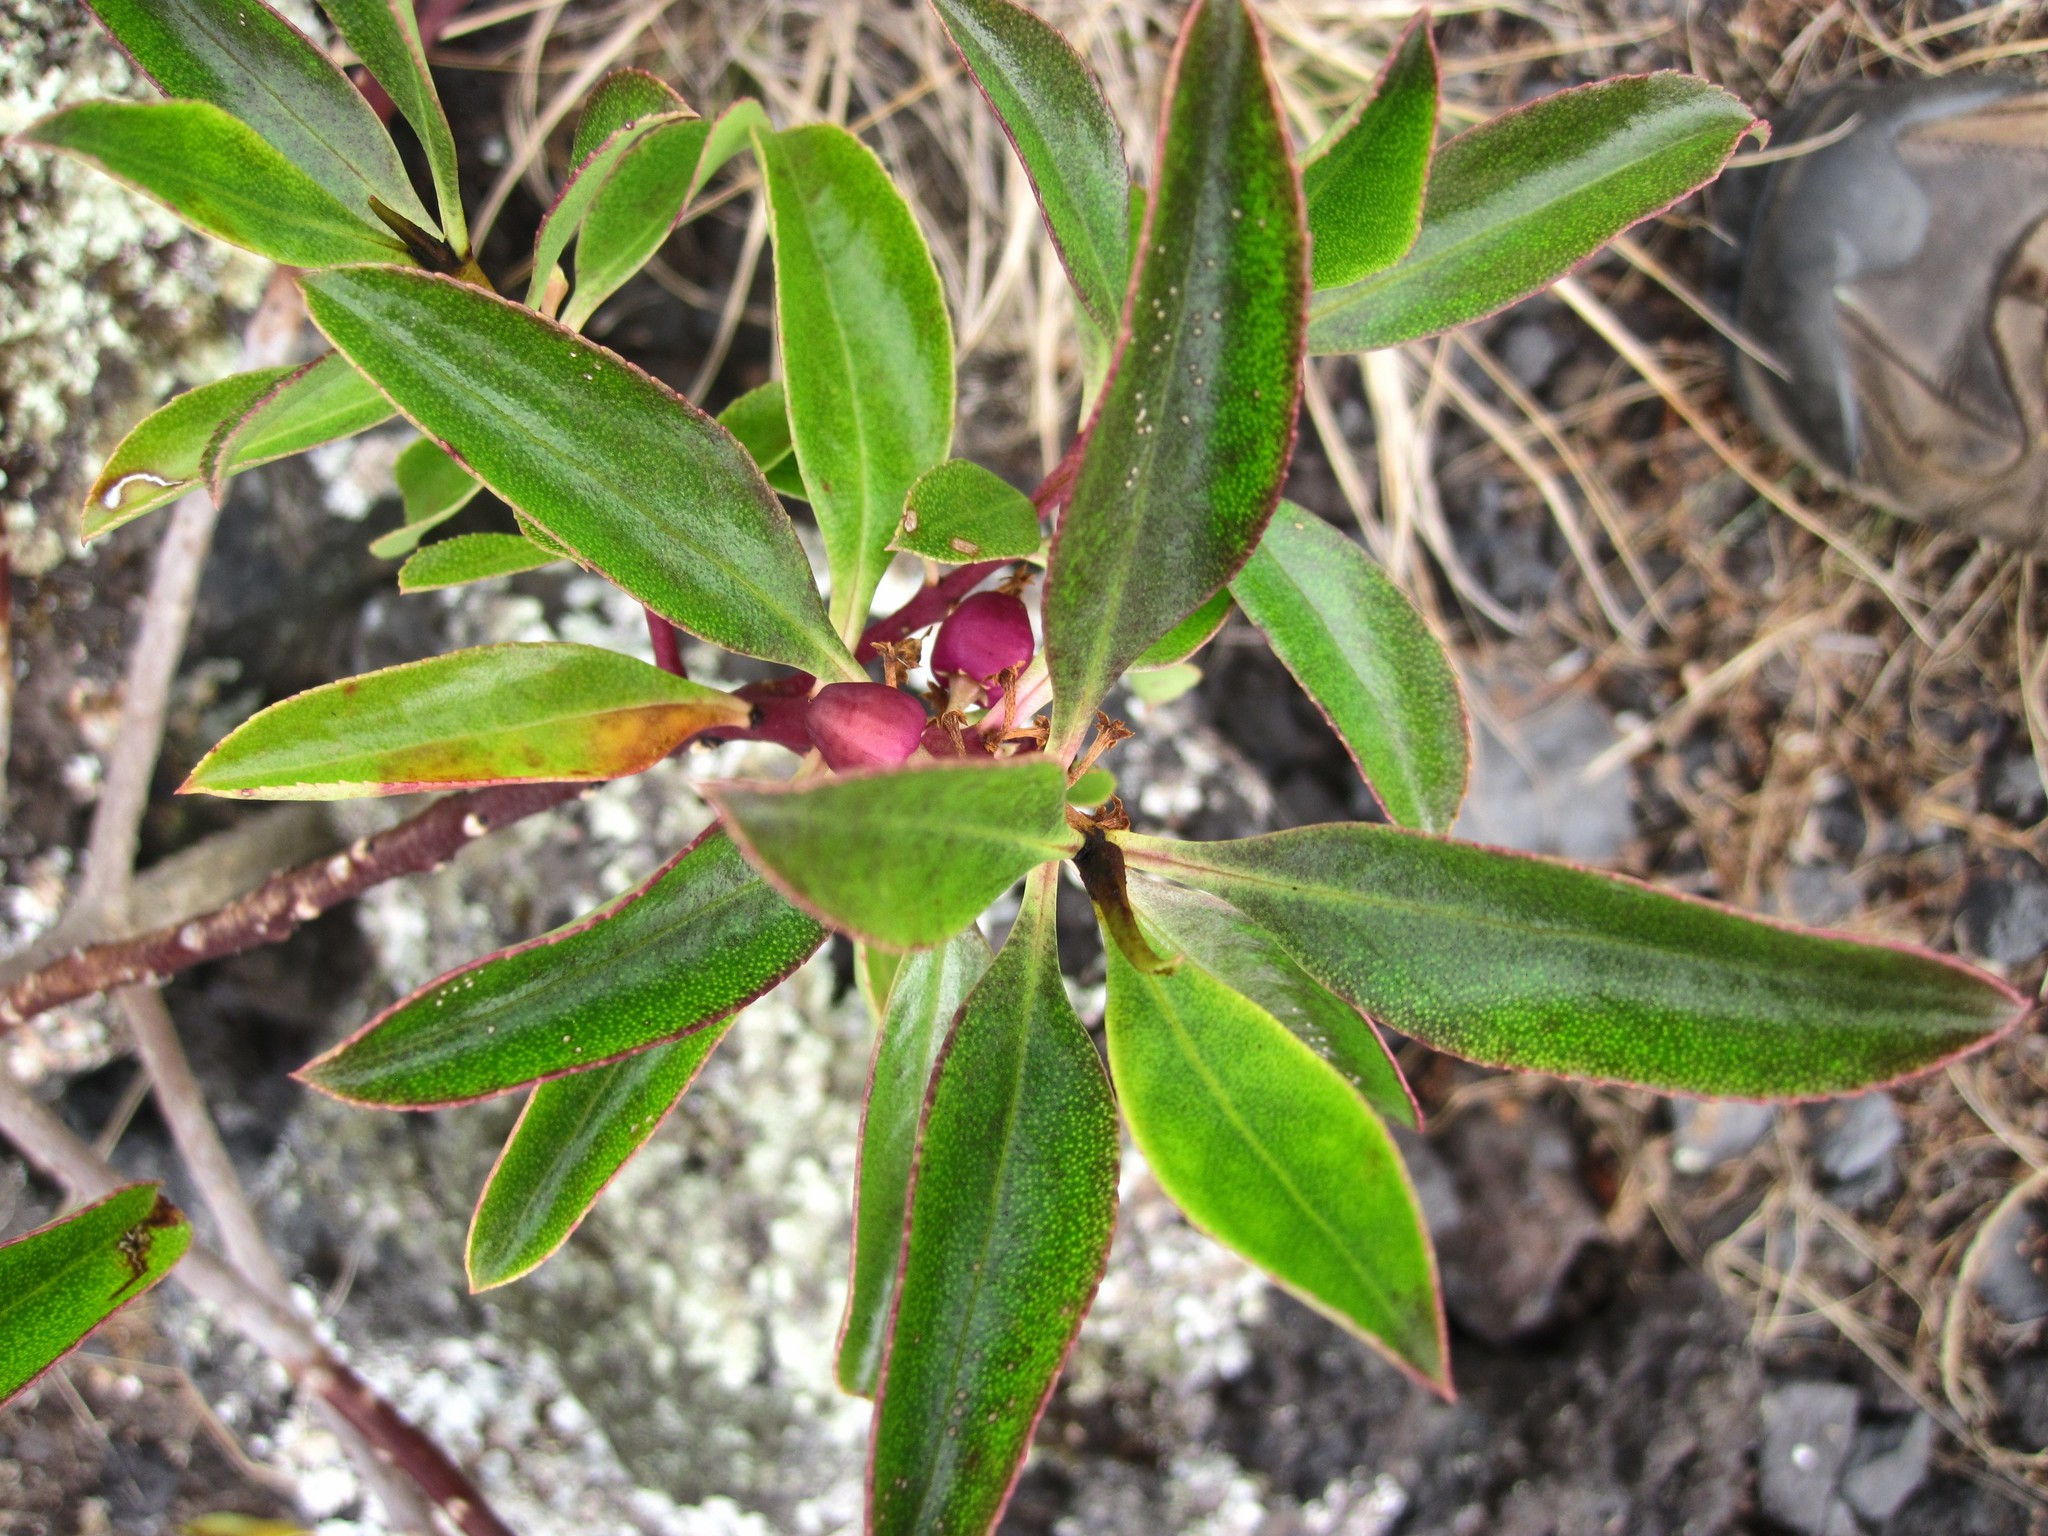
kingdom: Plantae
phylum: Tracheophyta
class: Magnoliopsida
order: Lamiales
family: Scrophulariaceae
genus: Myoporum
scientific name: Myoporum laetum
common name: Ngaio tree
